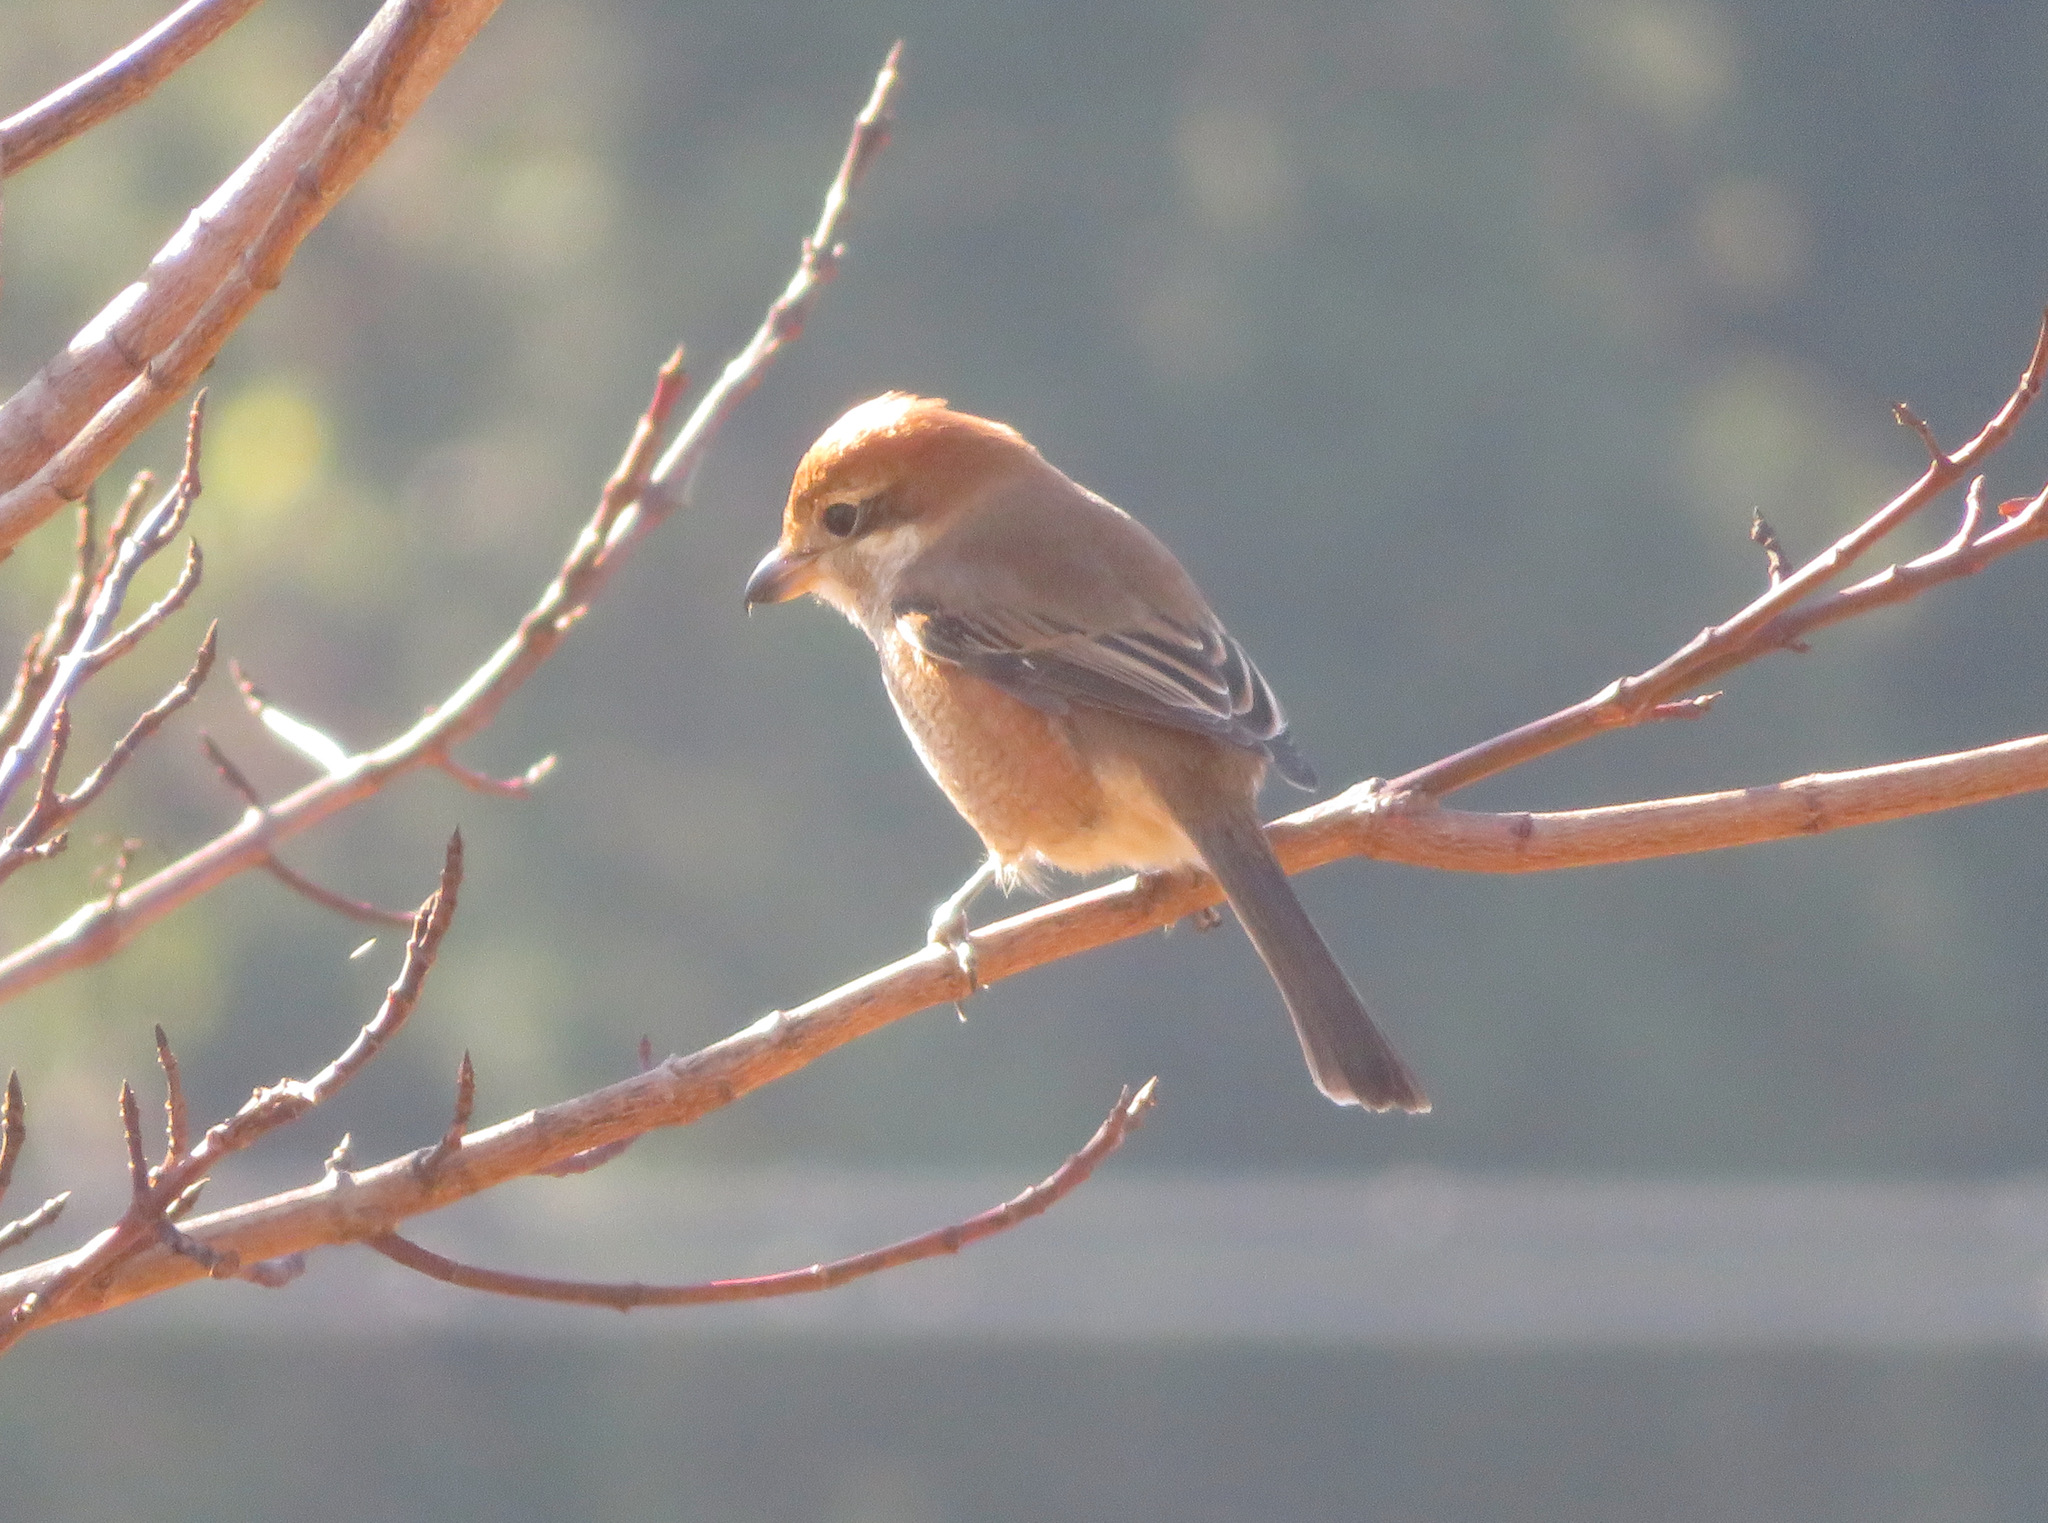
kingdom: Animalia
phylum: Chordata
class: Aves
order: Passeriformes
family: Laniidae
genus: Lanius
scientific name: Lanius bucephalus
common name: Bull-headed shrike
